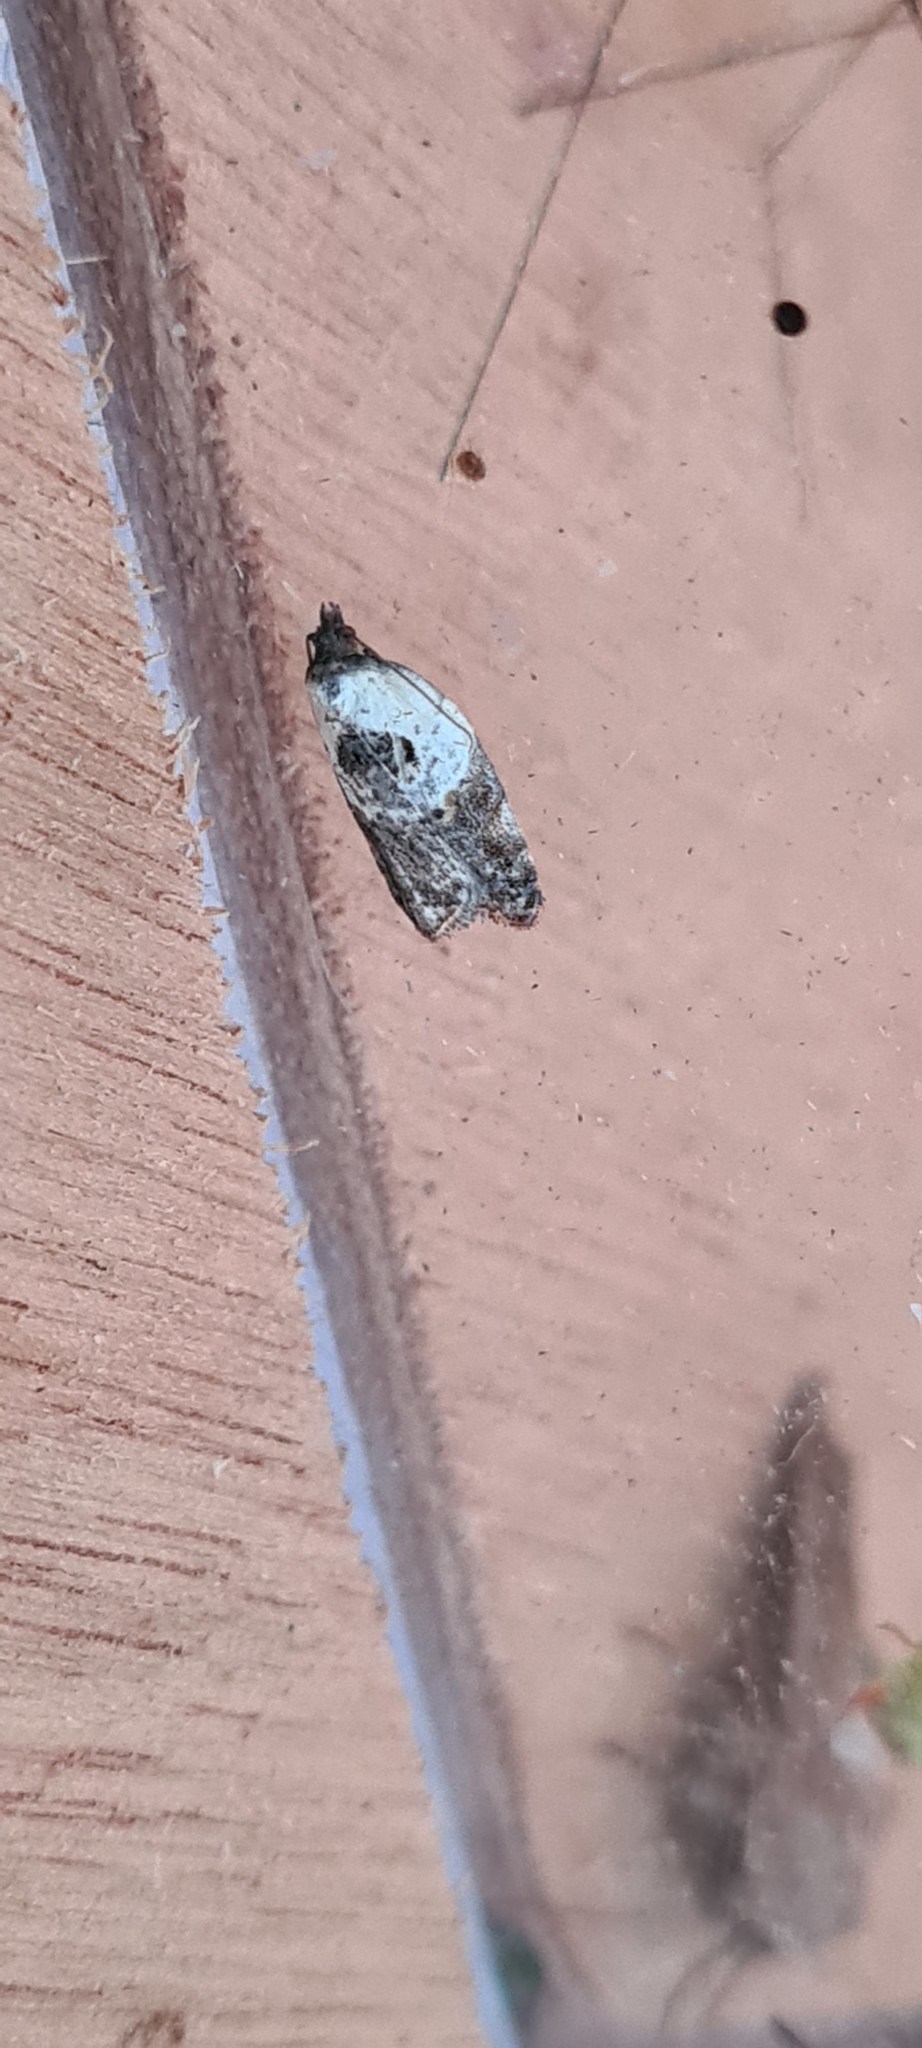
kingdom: Animalia
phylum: Arthropoda
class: Insecta
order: Lepidoptera
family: Tortricidae
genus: Acleris
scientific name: Acleris variegana
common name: Garden rose tortrix
